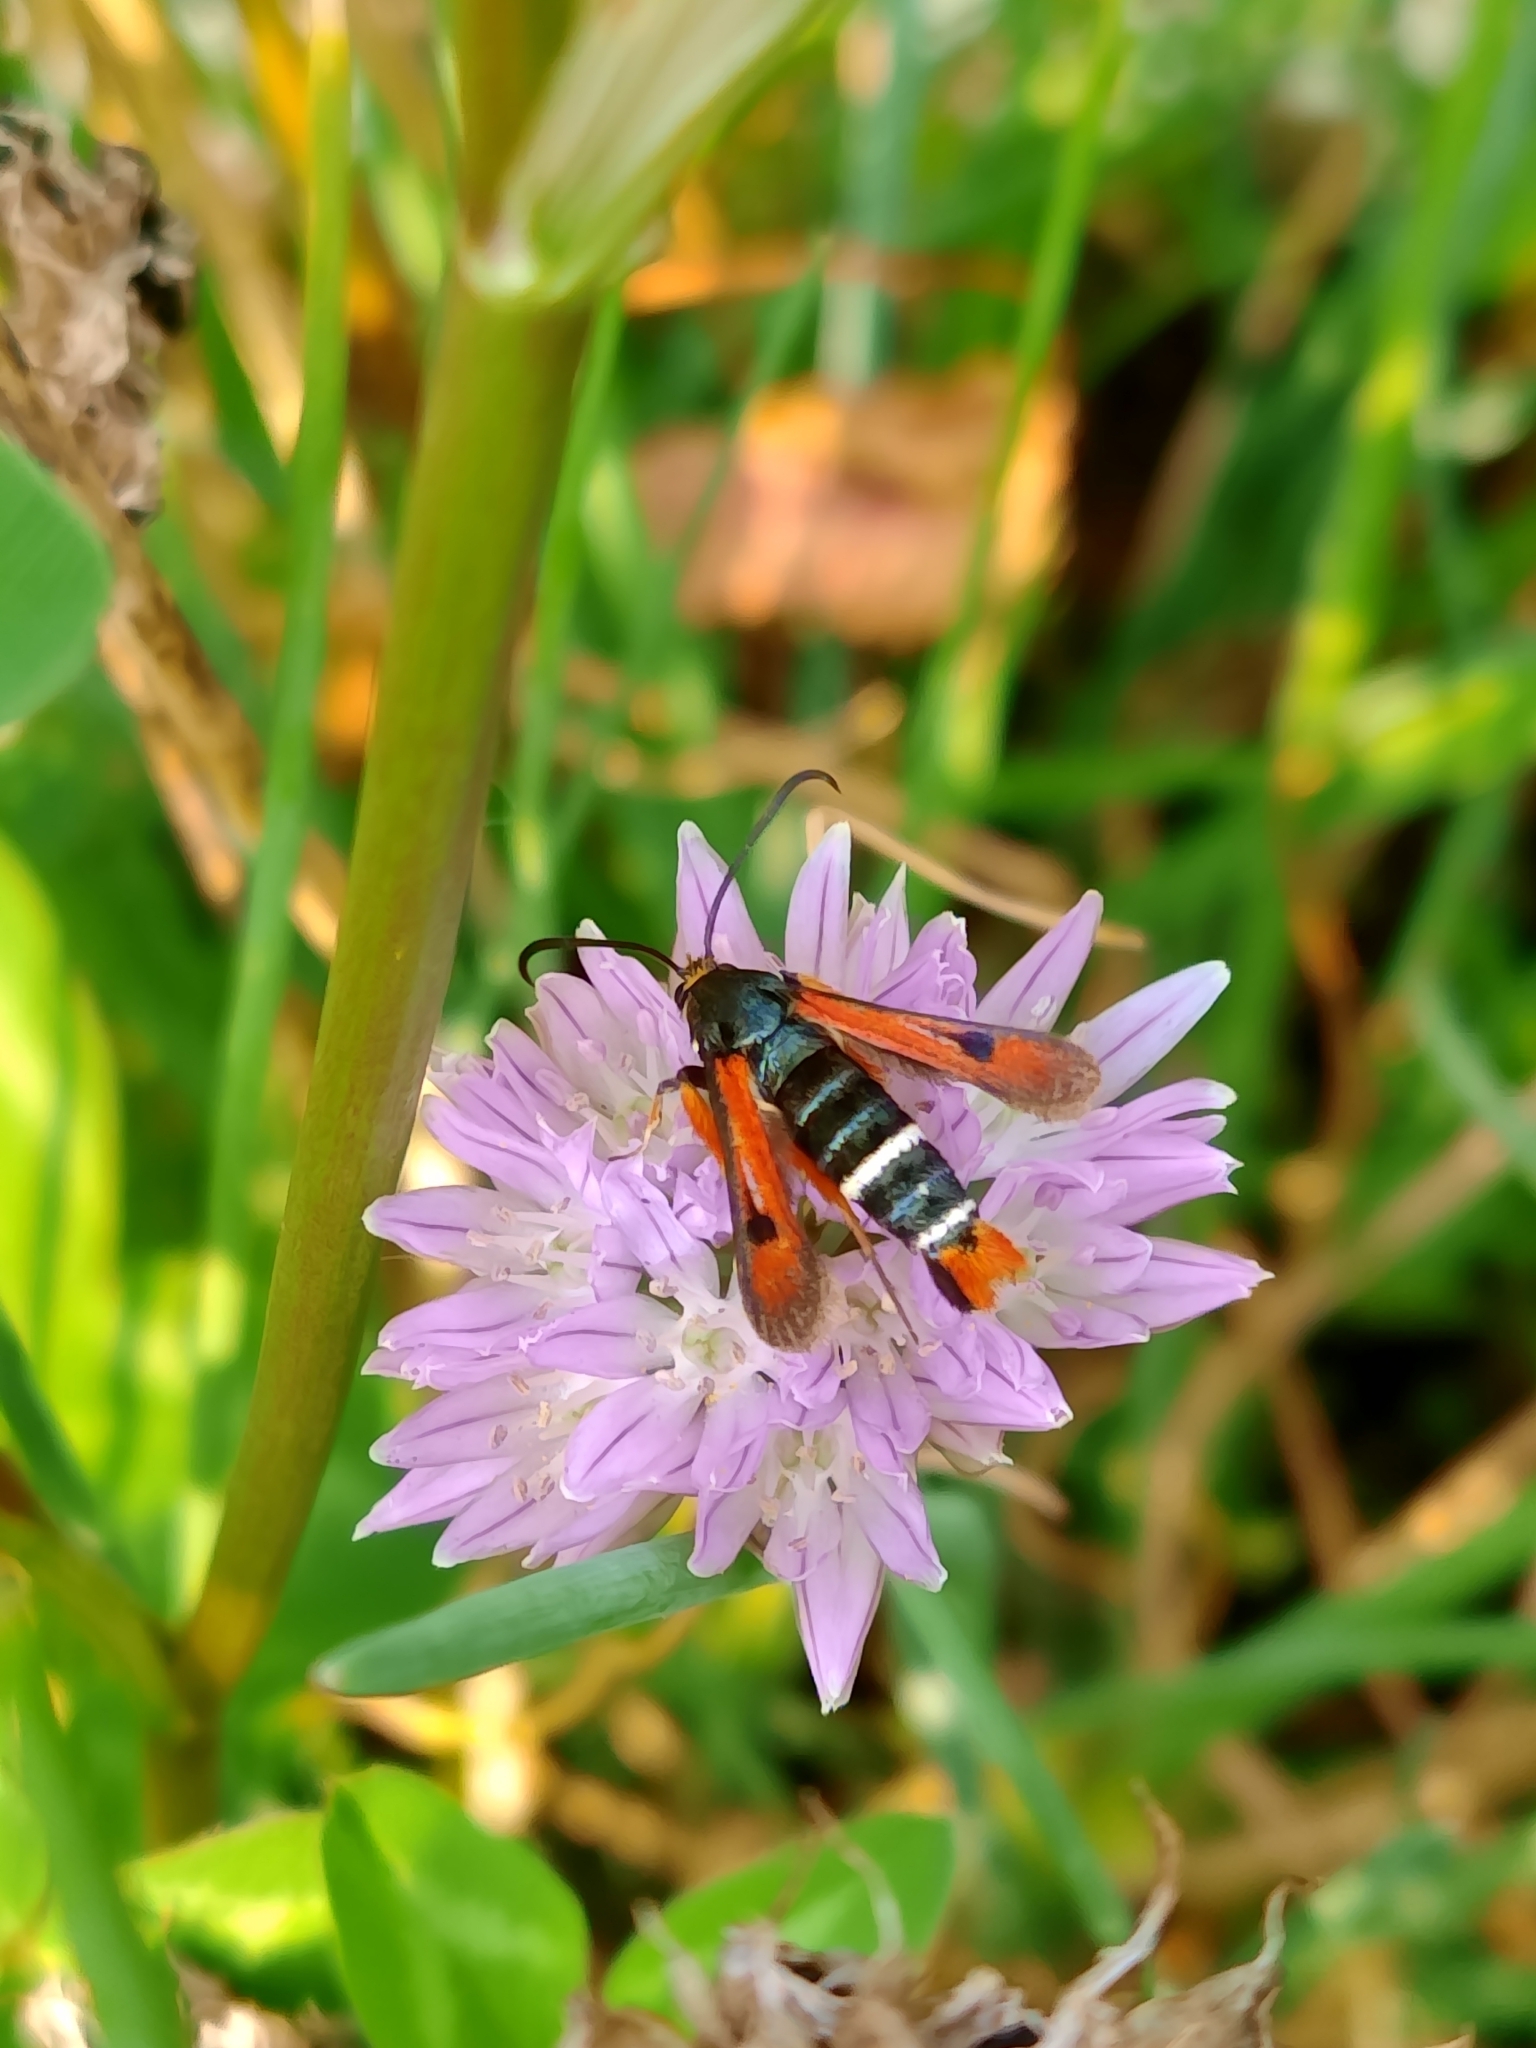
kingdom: Animalia
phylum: Arthropoda
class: Insecta
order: Lepidoptera
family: Sesiidae
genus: Pyropteron
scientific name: Pyropteron chrysidiforme
